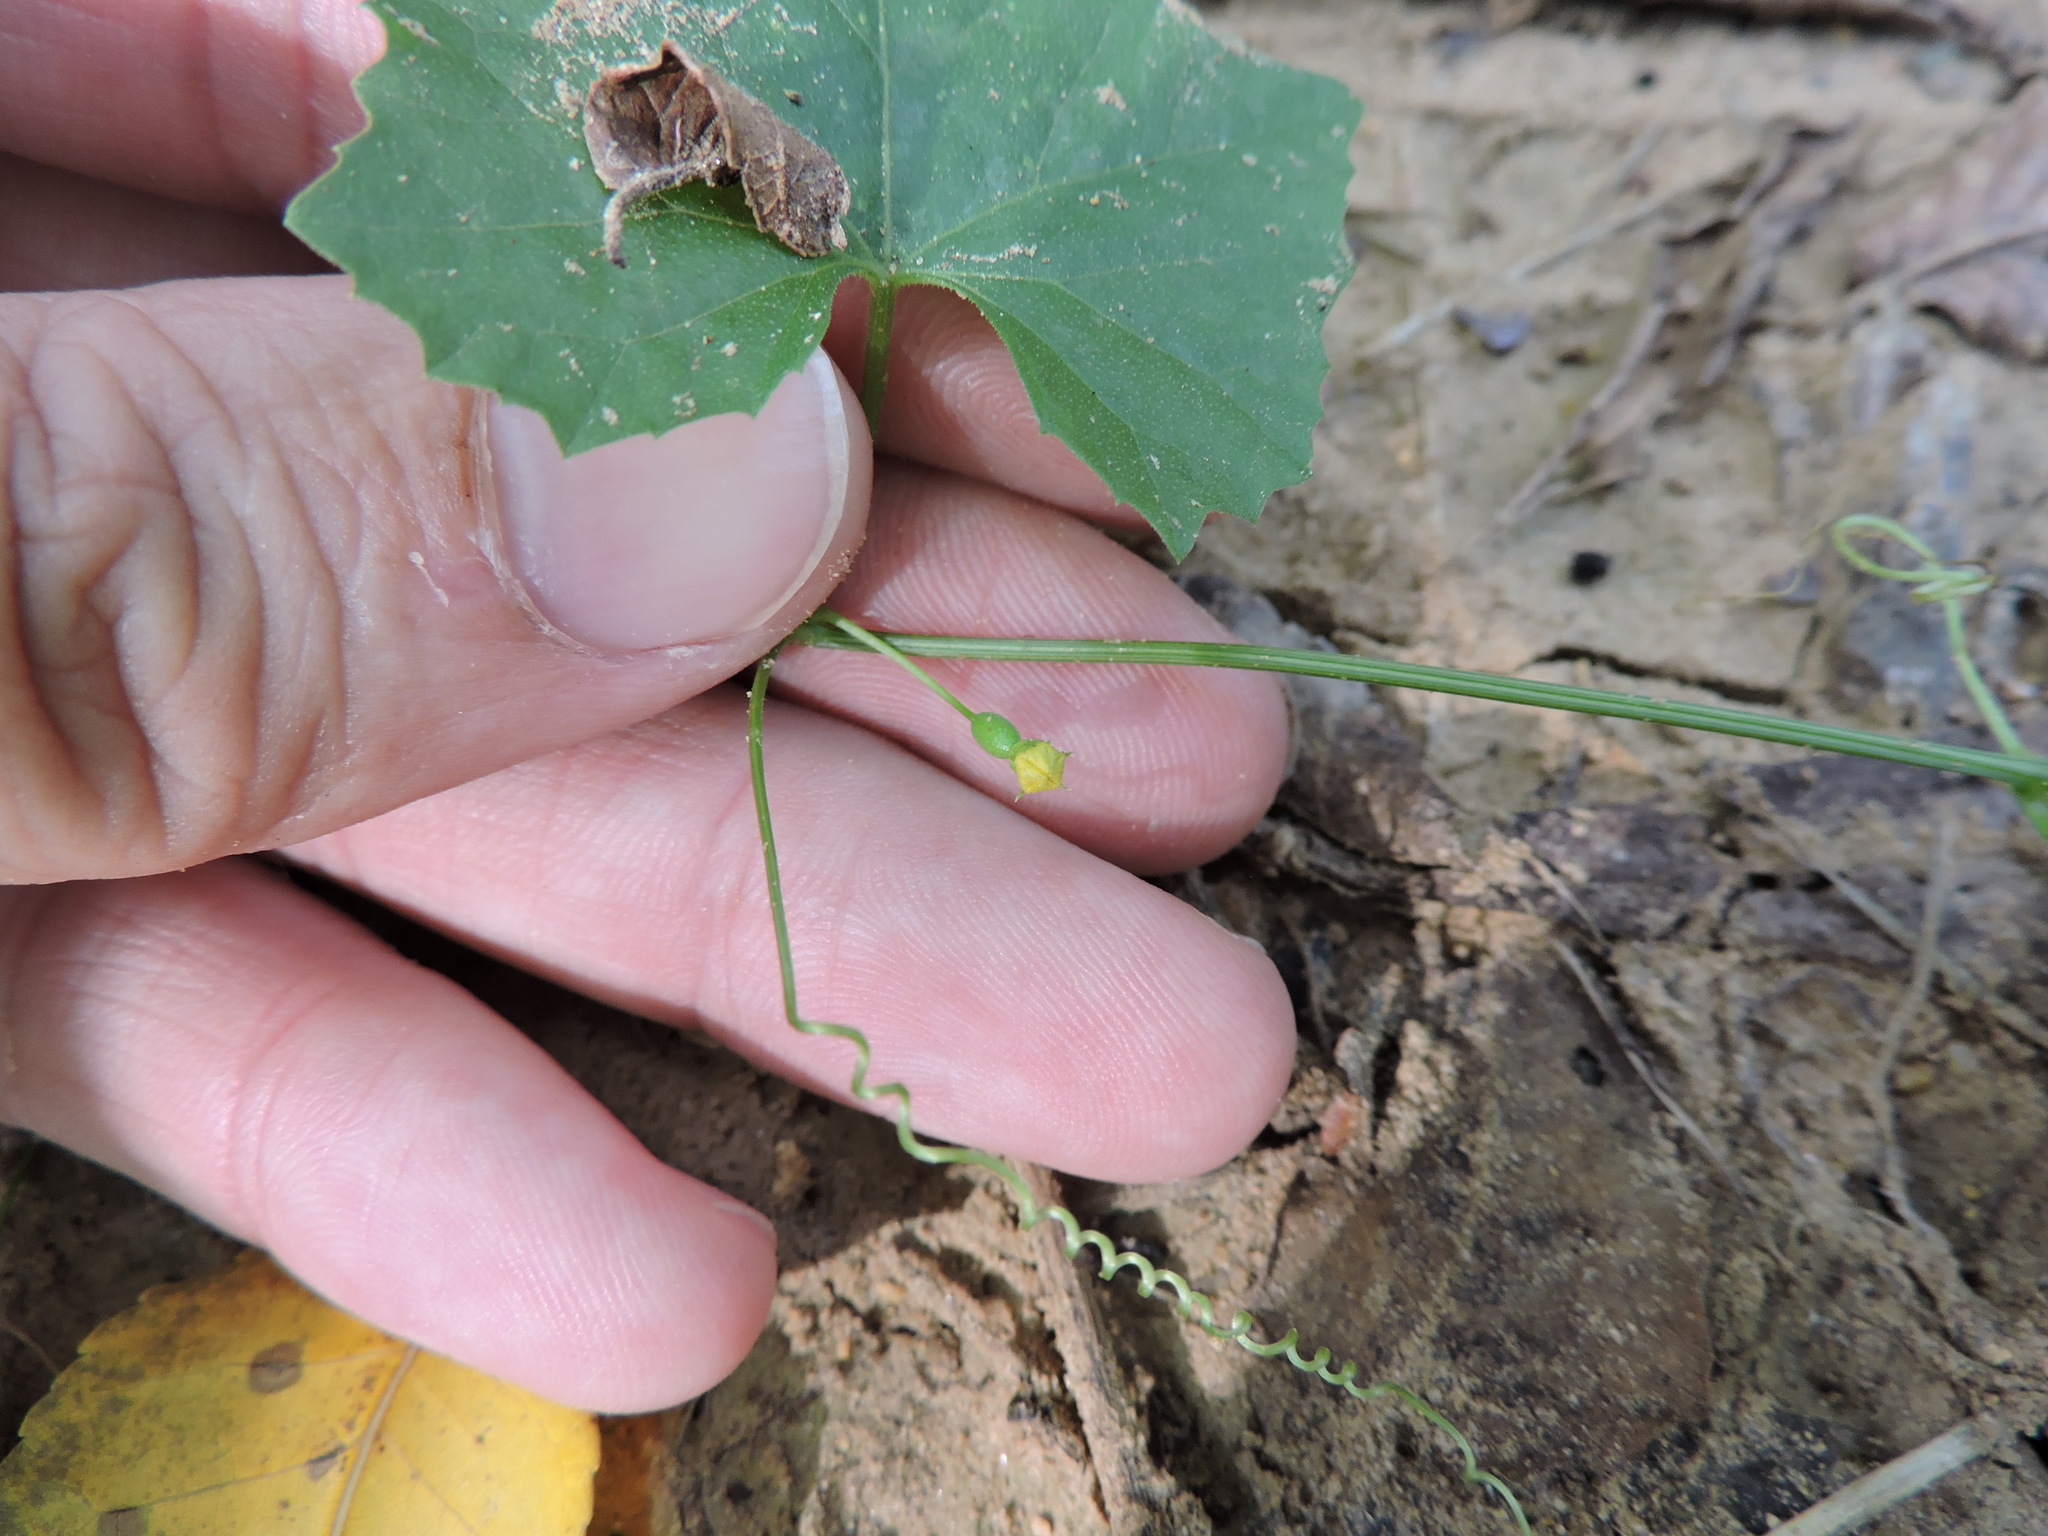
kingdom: Plantae
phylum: Tracheophyta
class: Magnoliopsida
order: Cucurbitales
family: Cucurbitaceae
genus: Melothria
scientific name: Melothria pendula
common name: Creeping-cucumber
